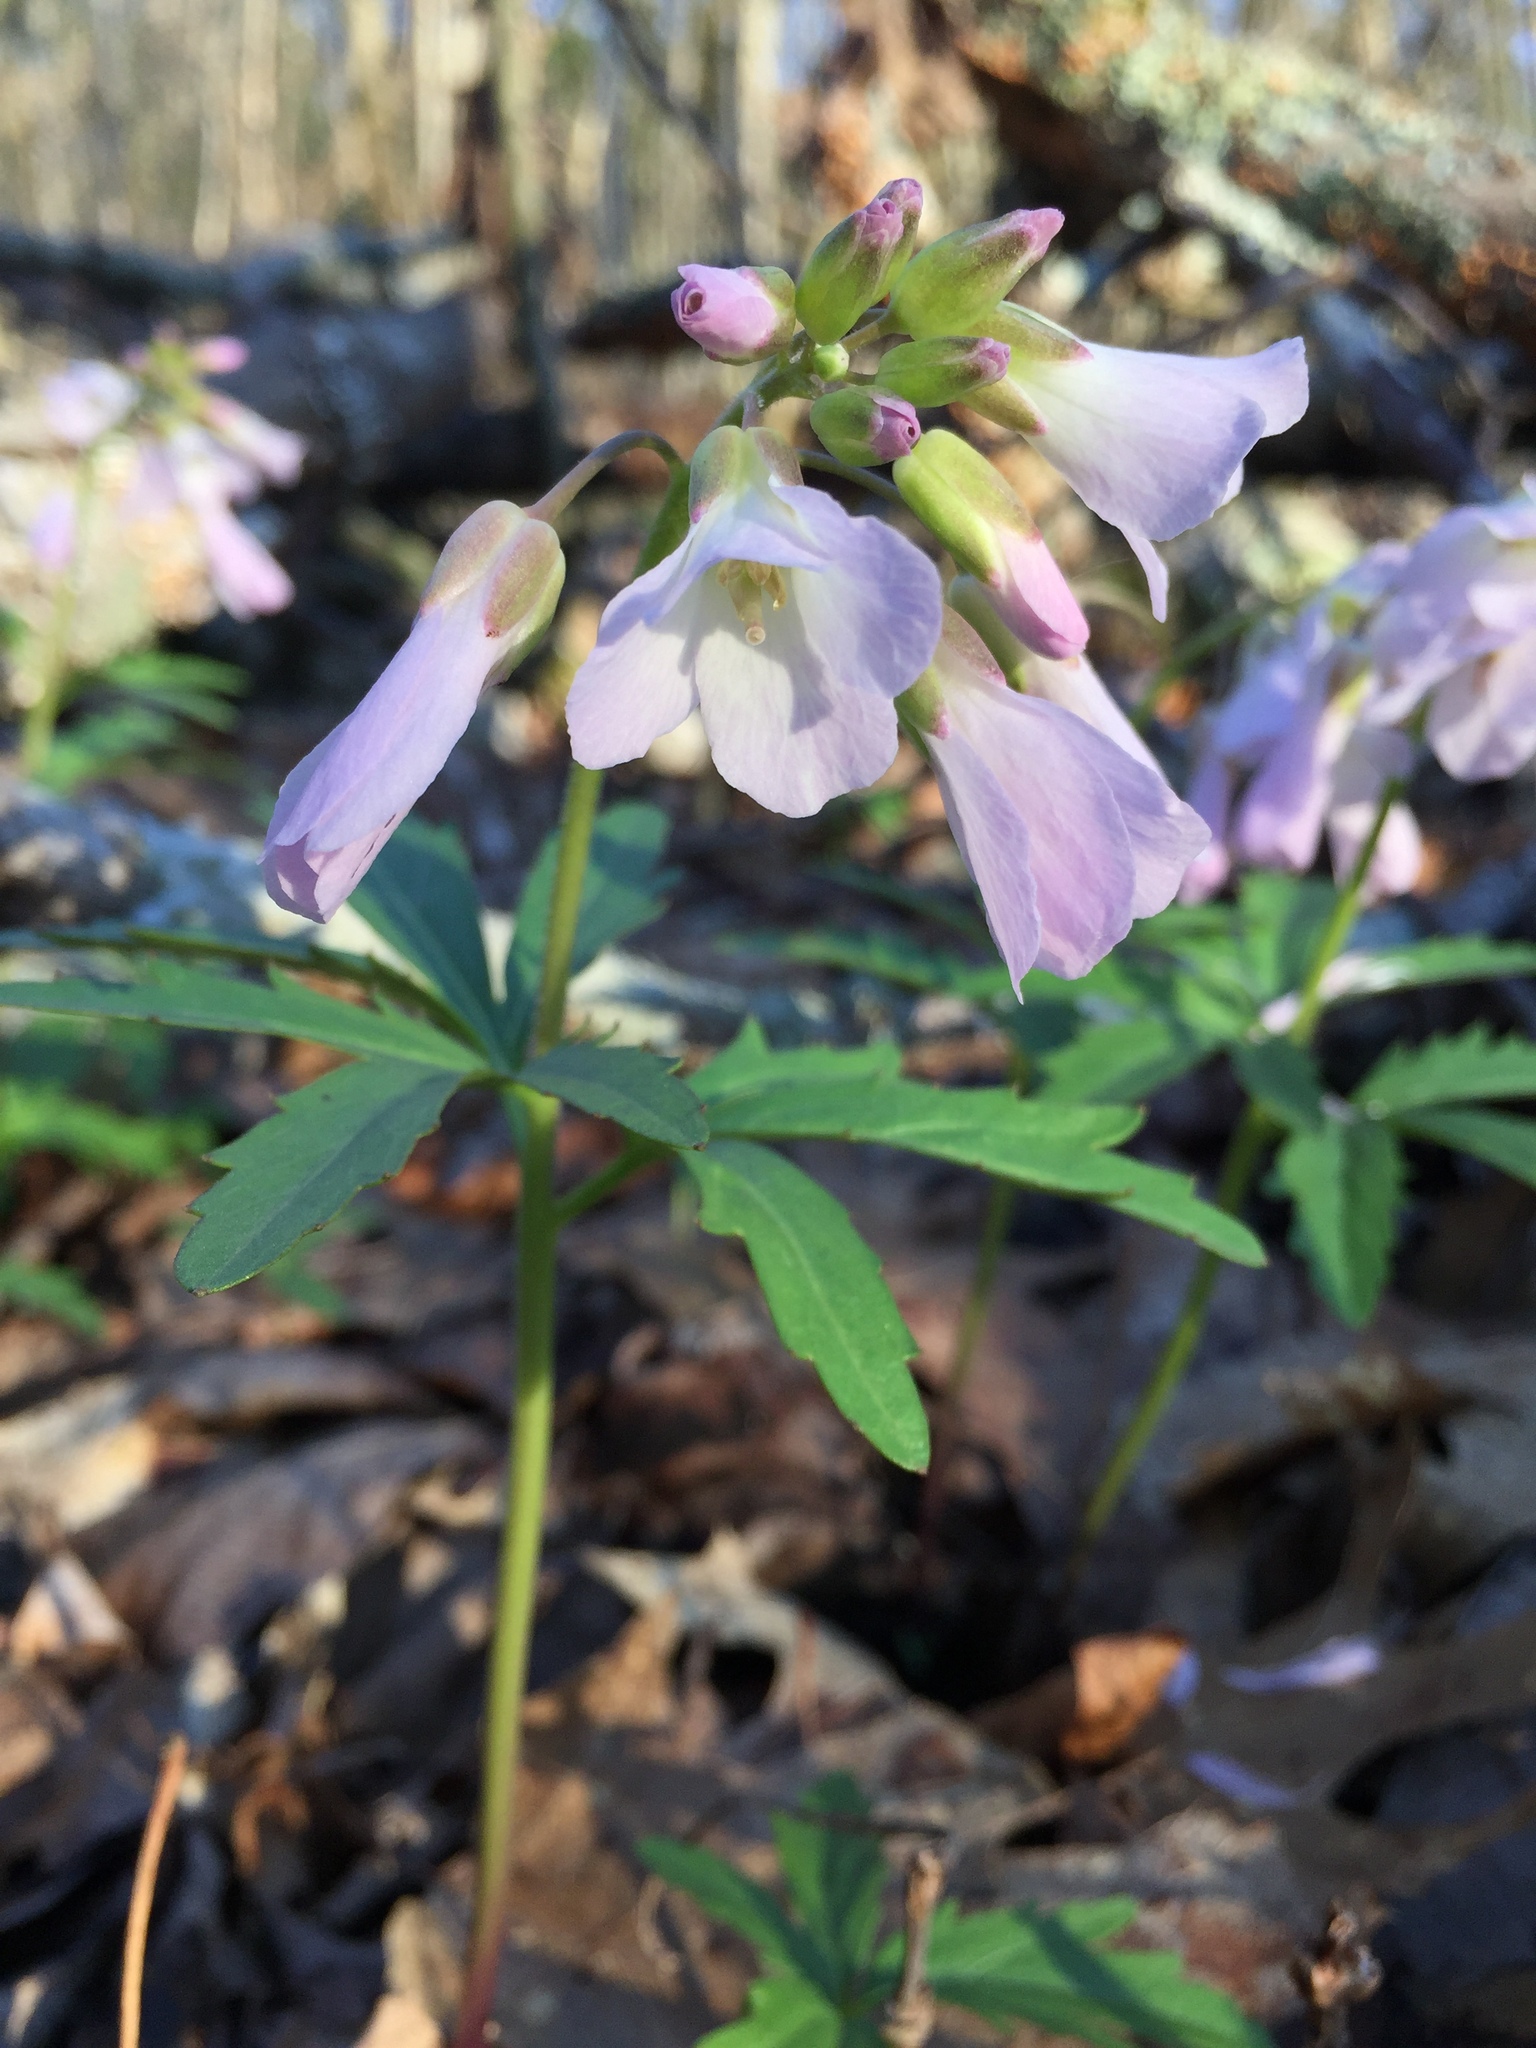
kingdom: Plantae
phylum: Tracheophyta
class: Magnoliopsida
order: Brassicales
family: Brassicaceae
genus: Cardamine
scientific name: Cardamine concatenata
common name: Cut-leaf toothcup
